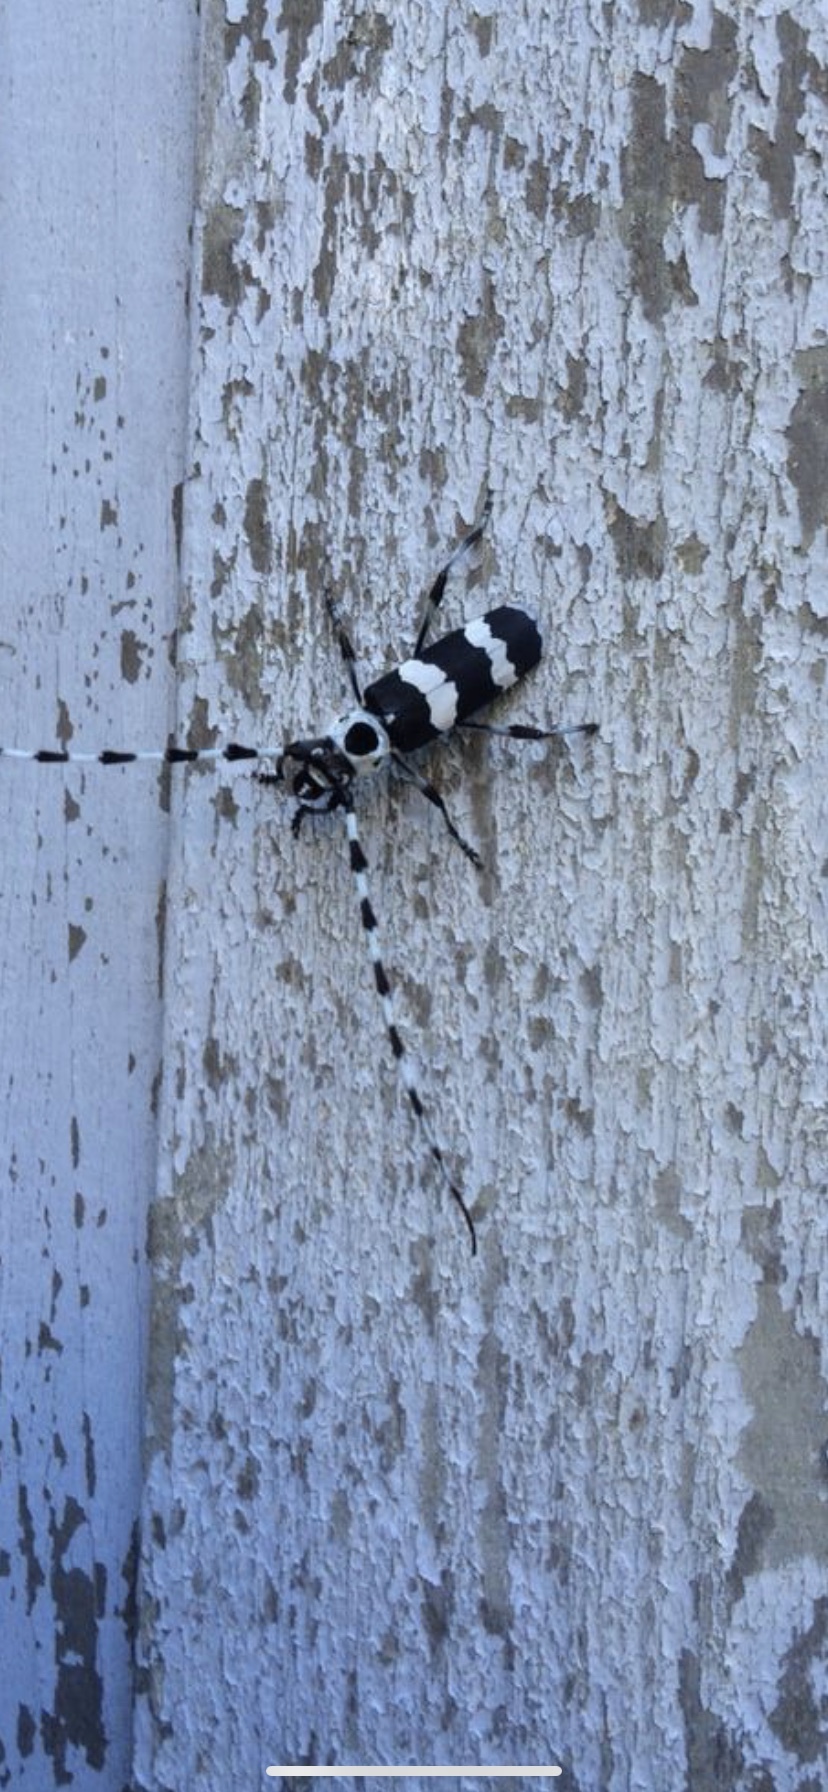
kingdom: Animalia
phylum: Arthropoda
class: Insecta
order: Coleoptera
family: Cerambycidae
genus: Rosalia
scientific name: Rosalia funebris
